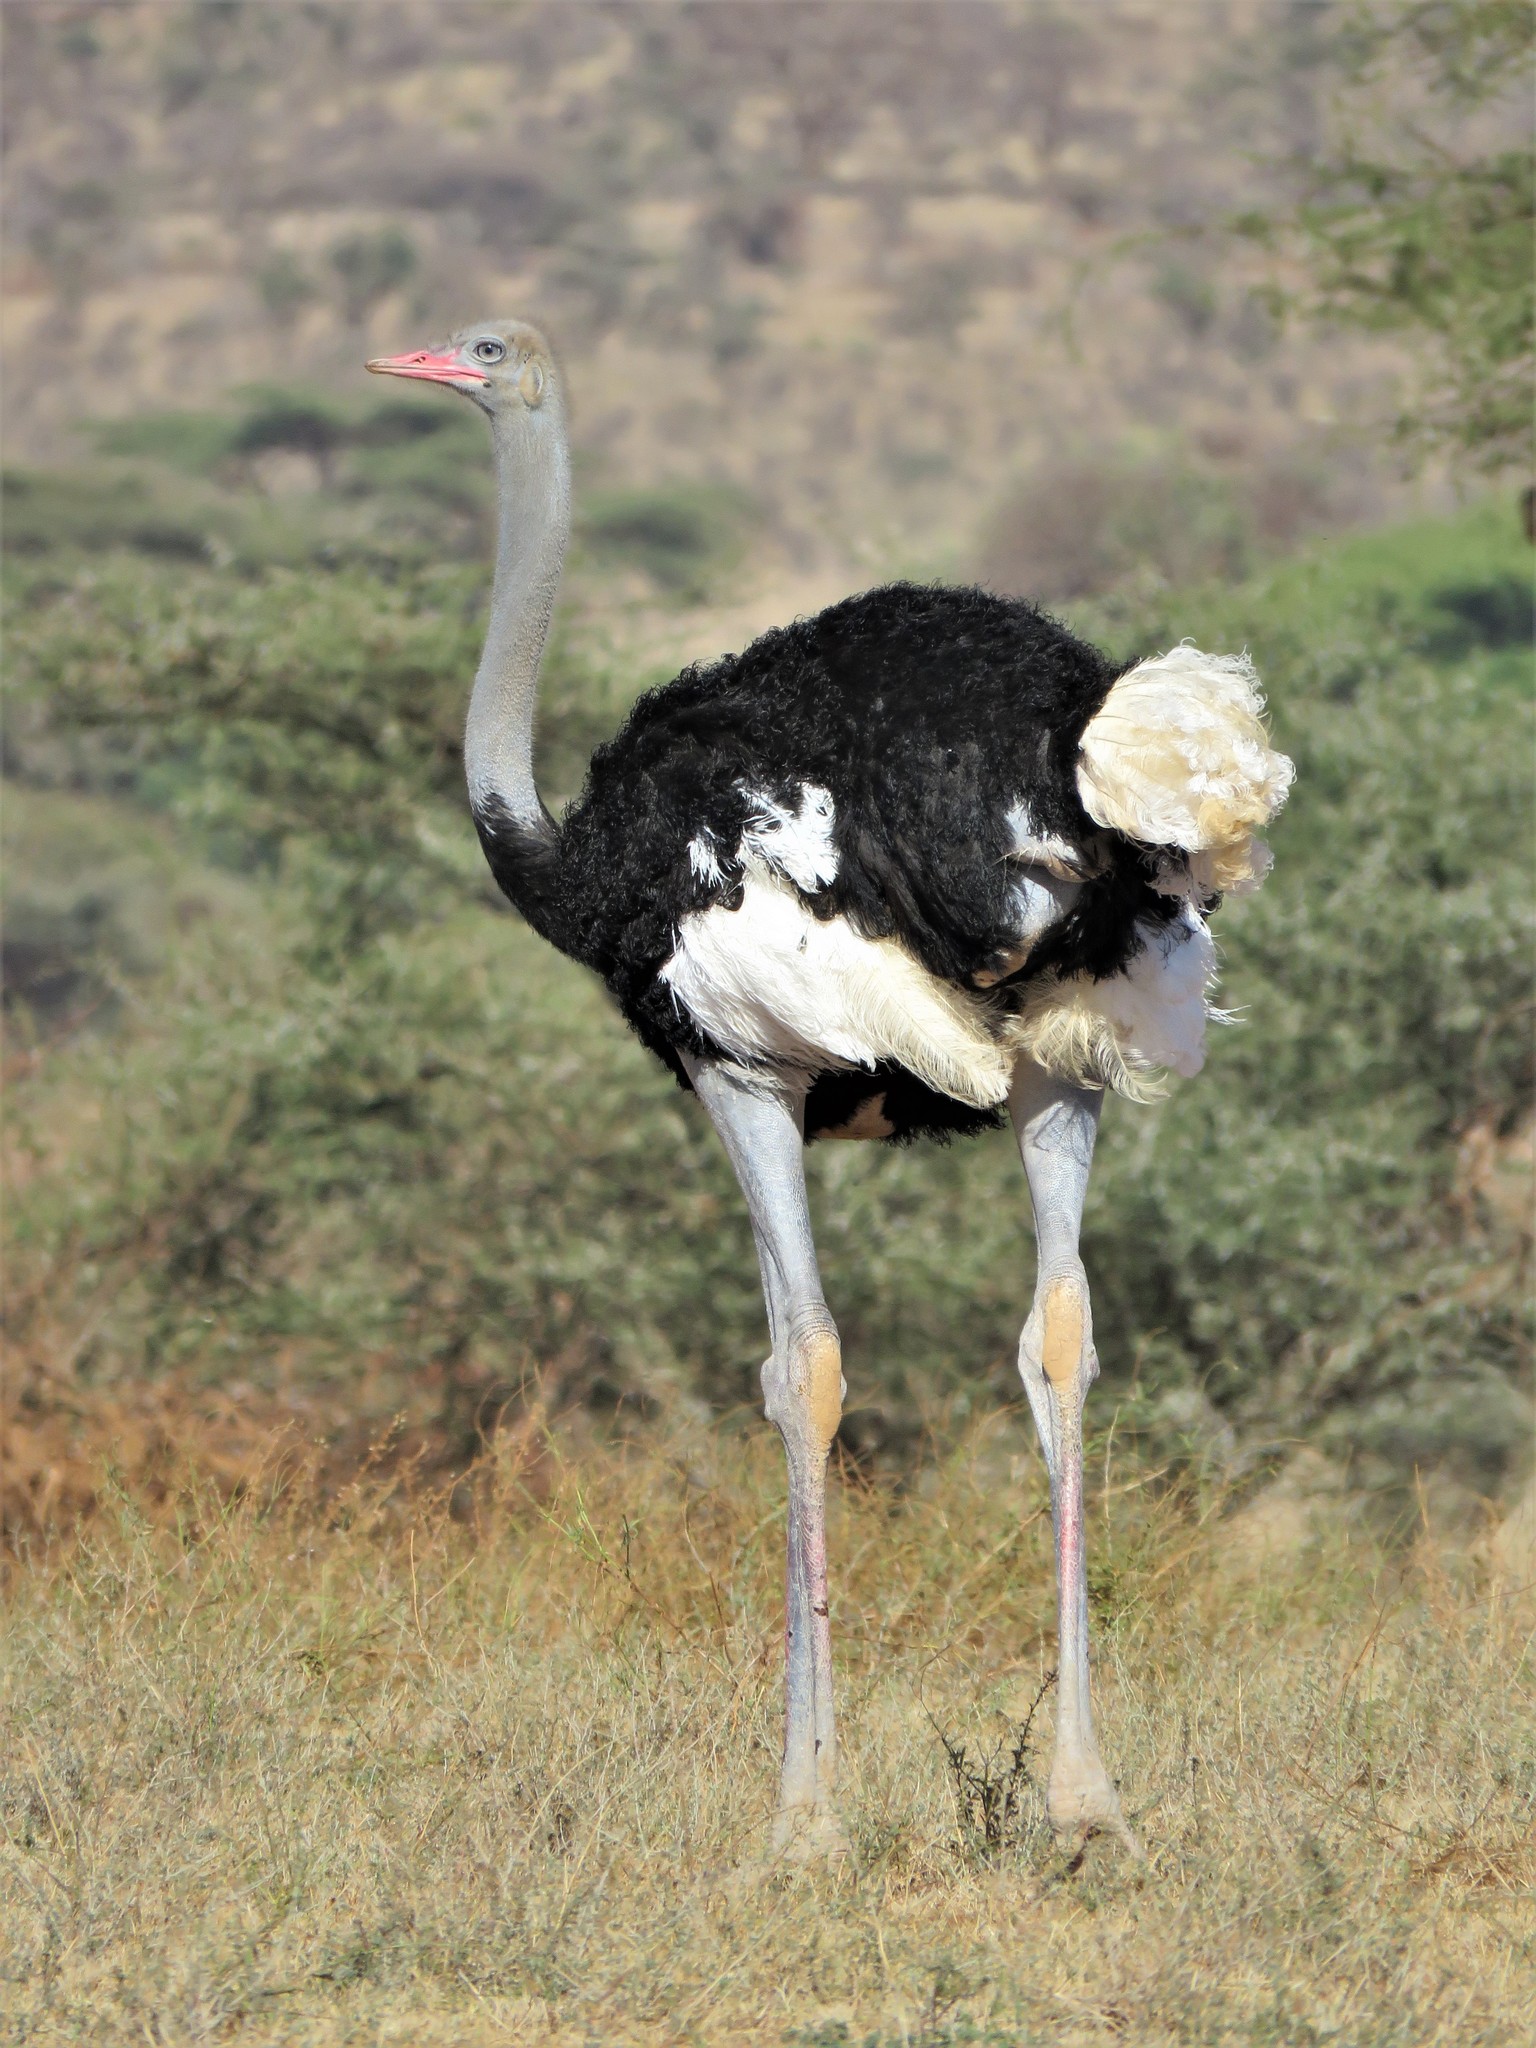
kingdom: Animalia
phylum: Chordata
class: Aves
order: Struthioniformes
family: Struthionidae
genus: Struthio
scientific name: Struthio molybdophanes
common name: Somali ostrich
